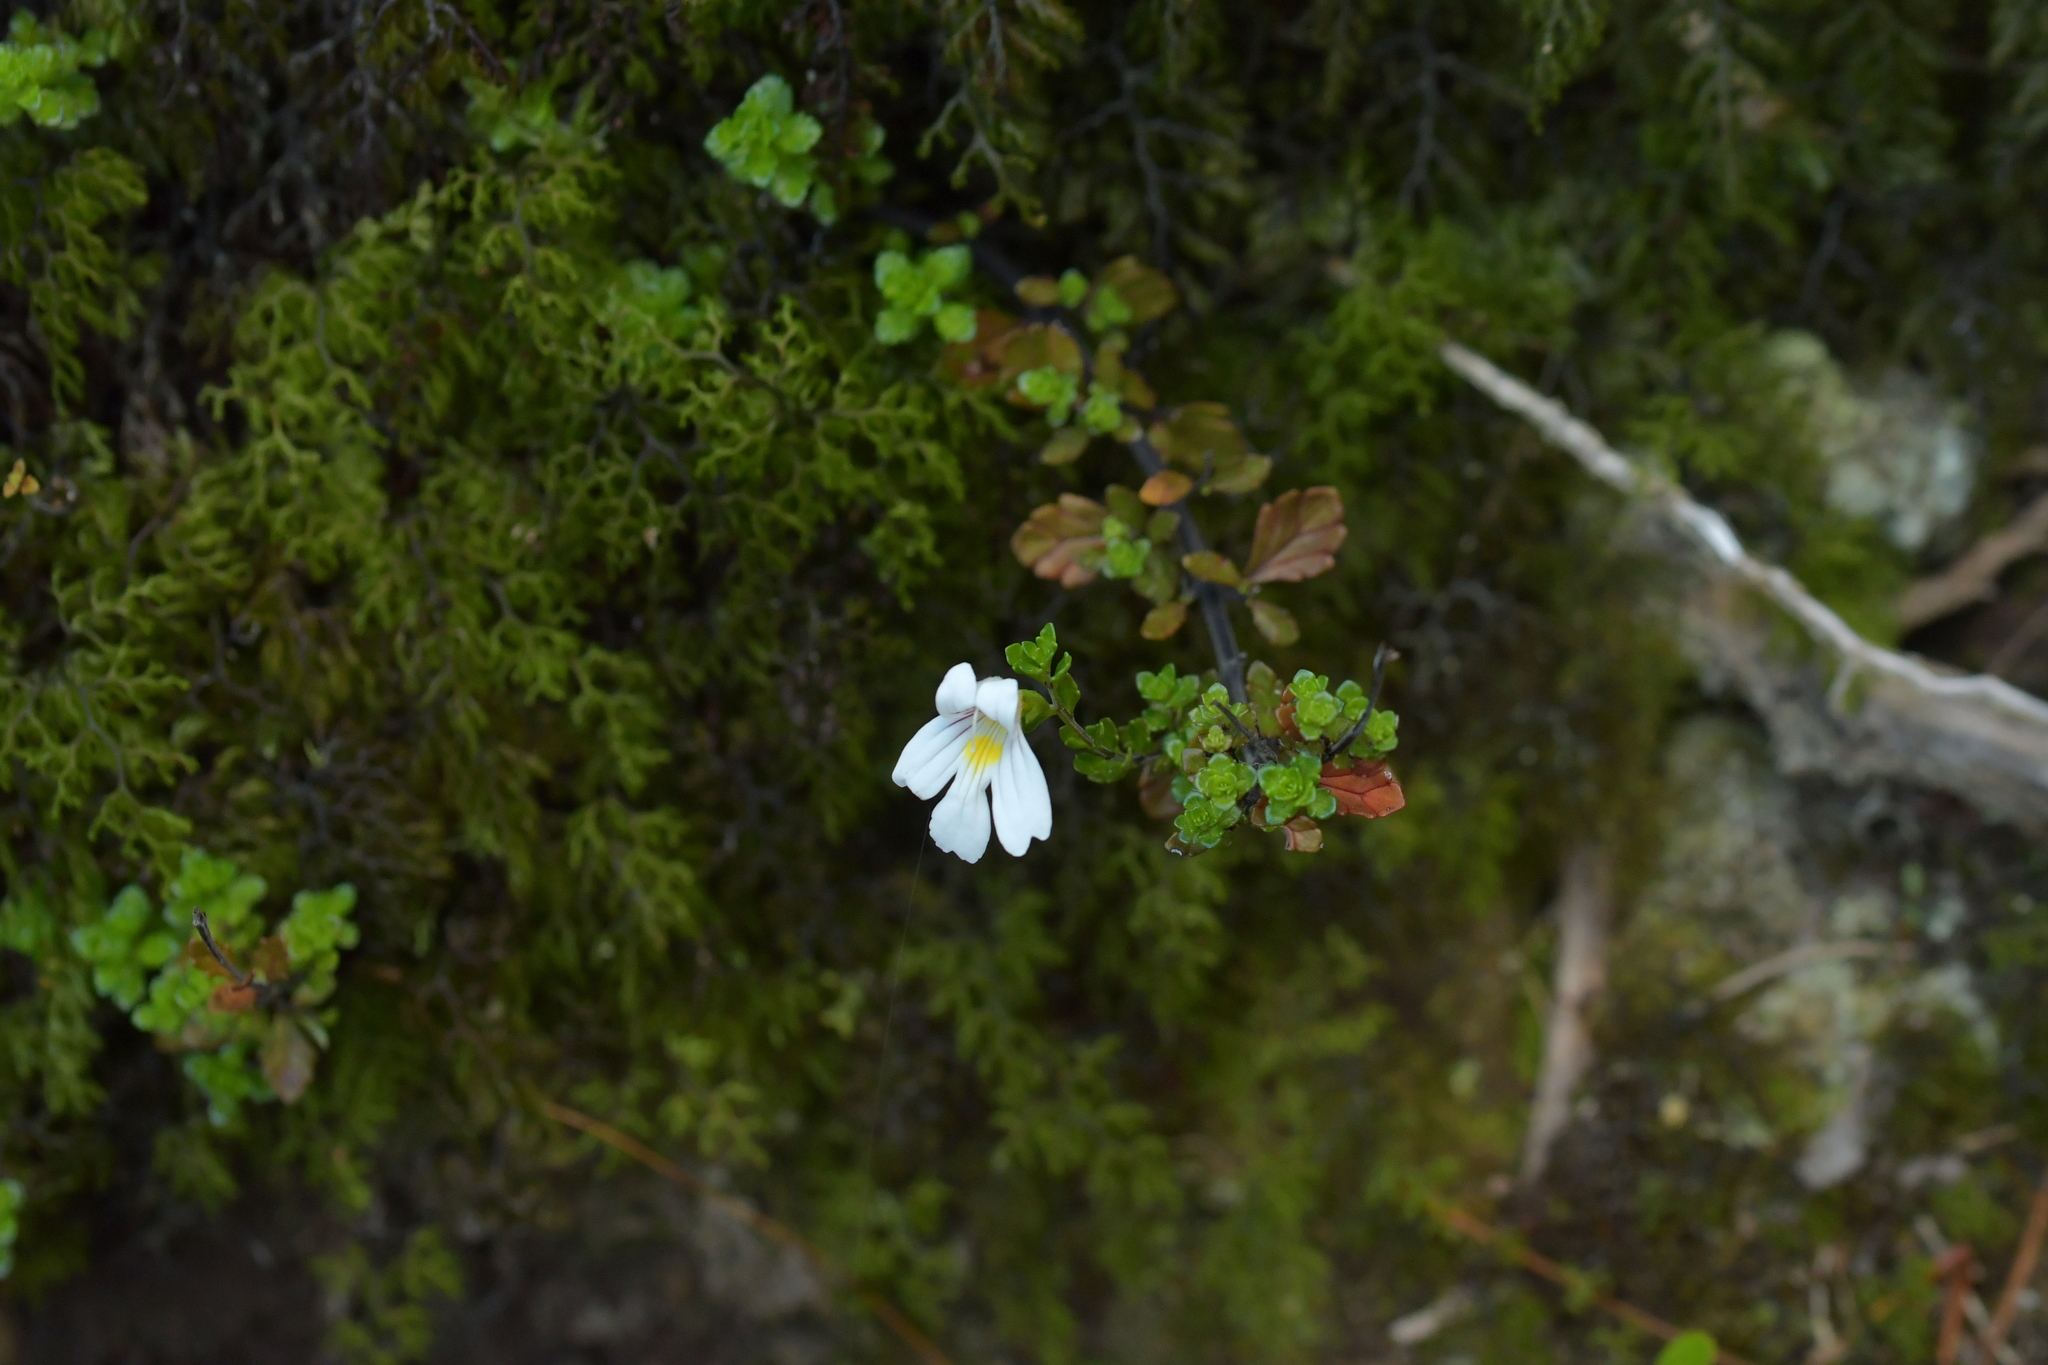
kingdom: Plantae
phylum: Tracheophyta
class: Magnoliopsida
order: Lamiales
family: Orobanchaceae
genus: Euphrasia
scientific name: Euphrasia cuneata
